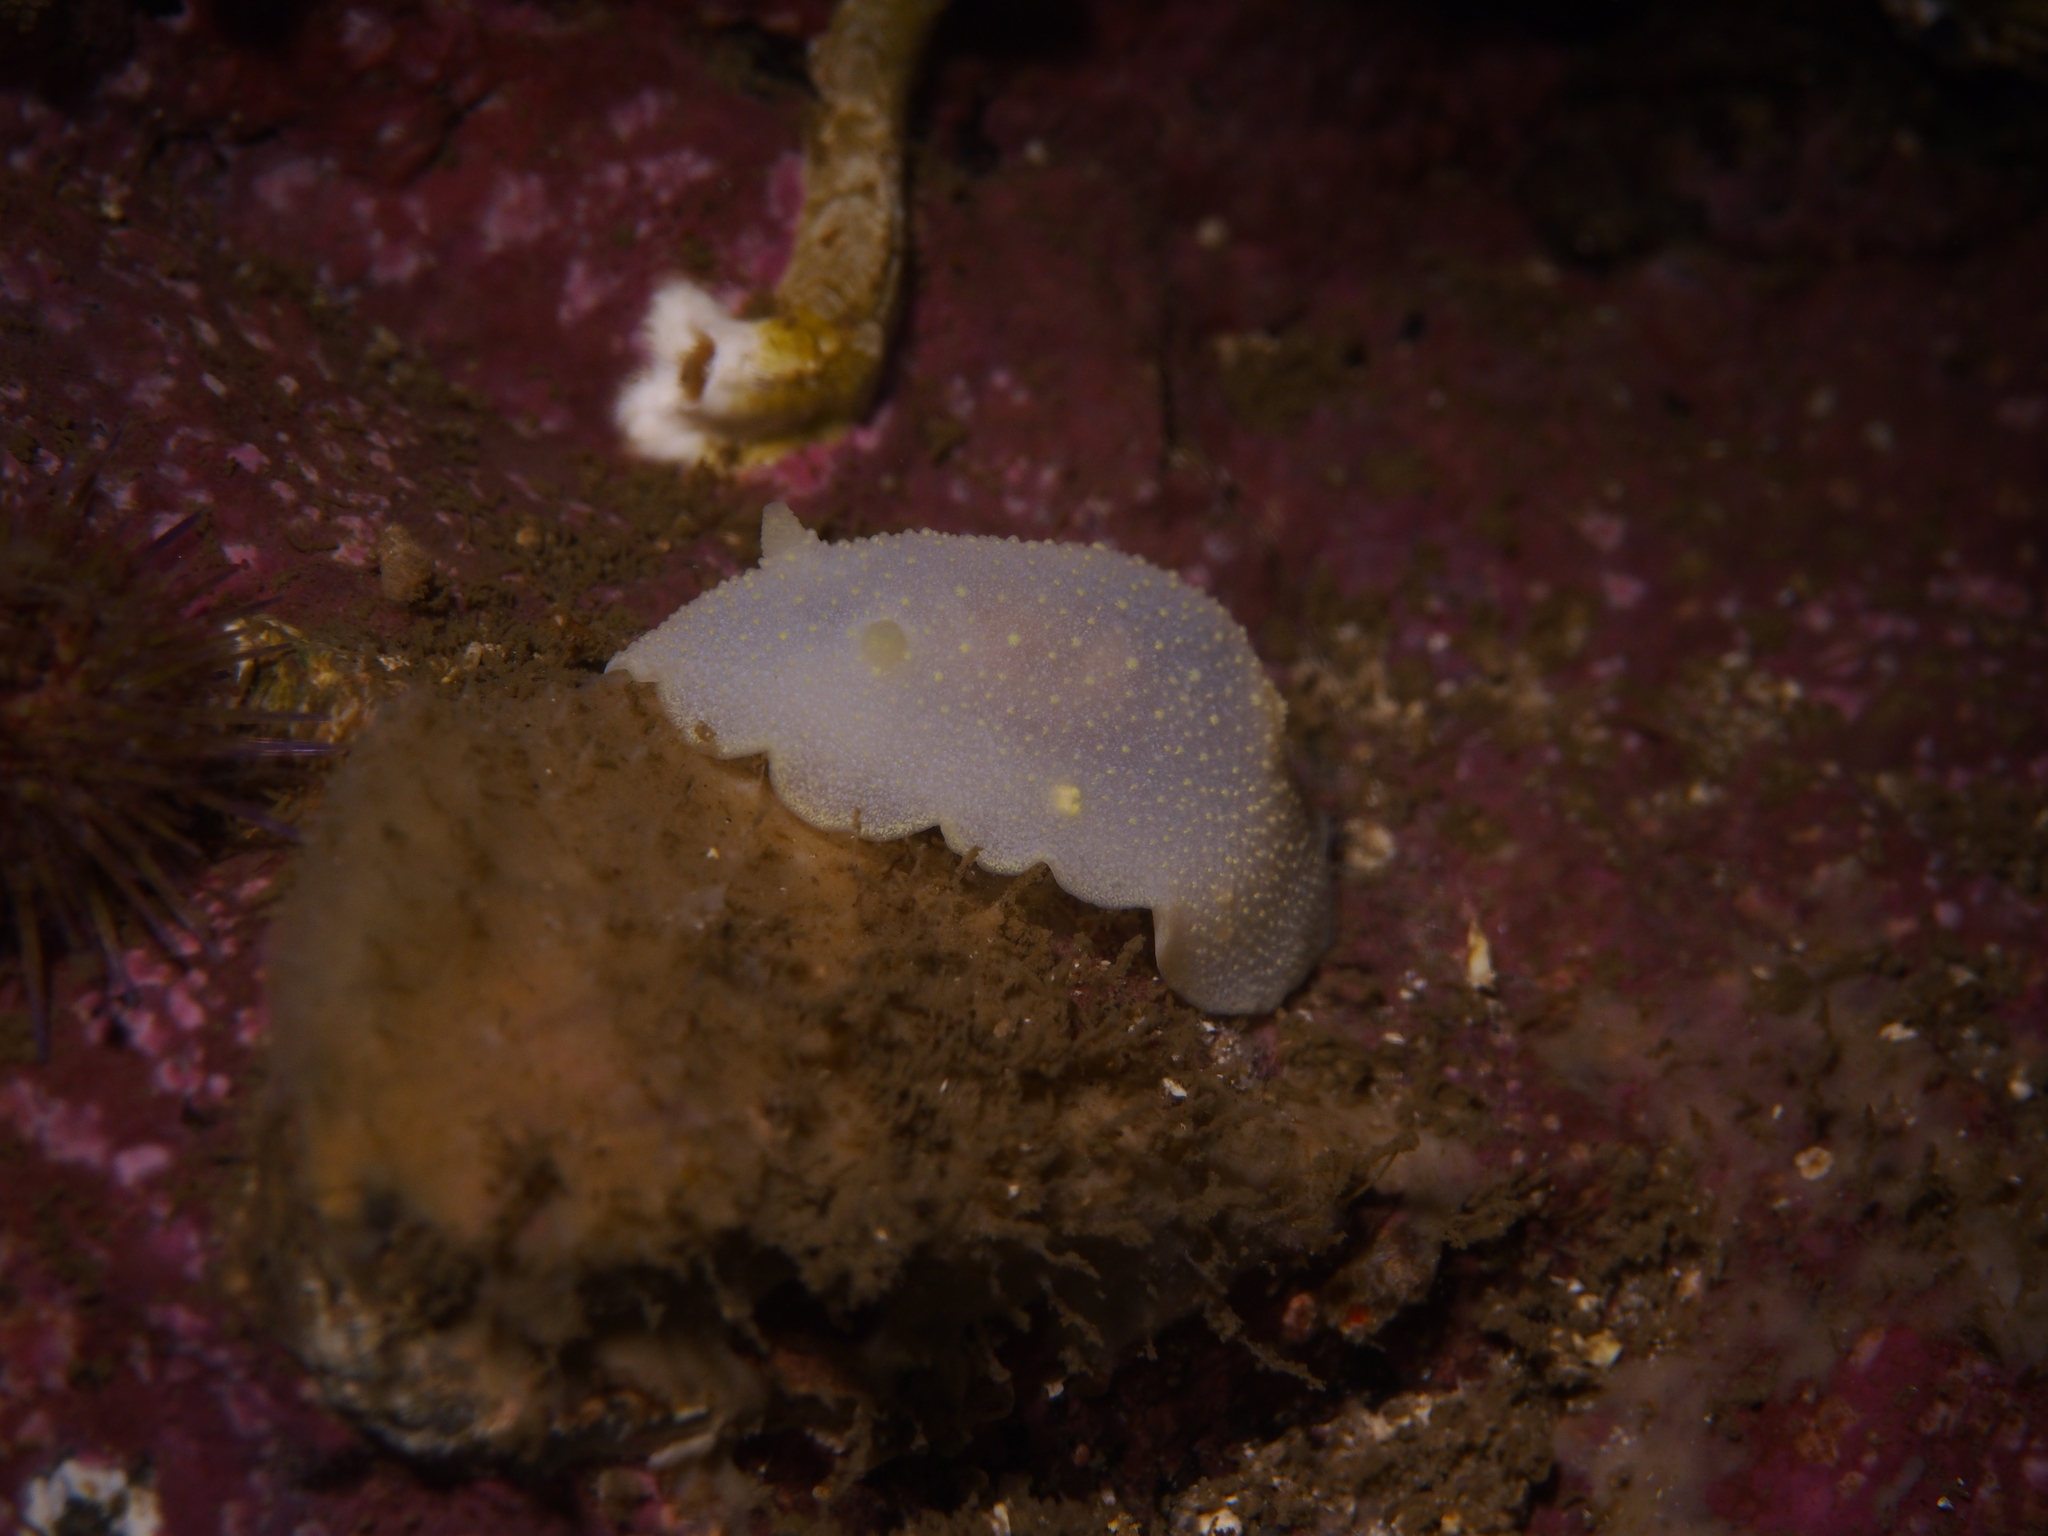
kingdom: Animalia
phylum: Mollusca
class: Gastropoda
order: Nudibranchia
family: Cadlinidae
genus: Cadlina
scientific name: Cadlina laevis
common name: White atlantic cadlina
